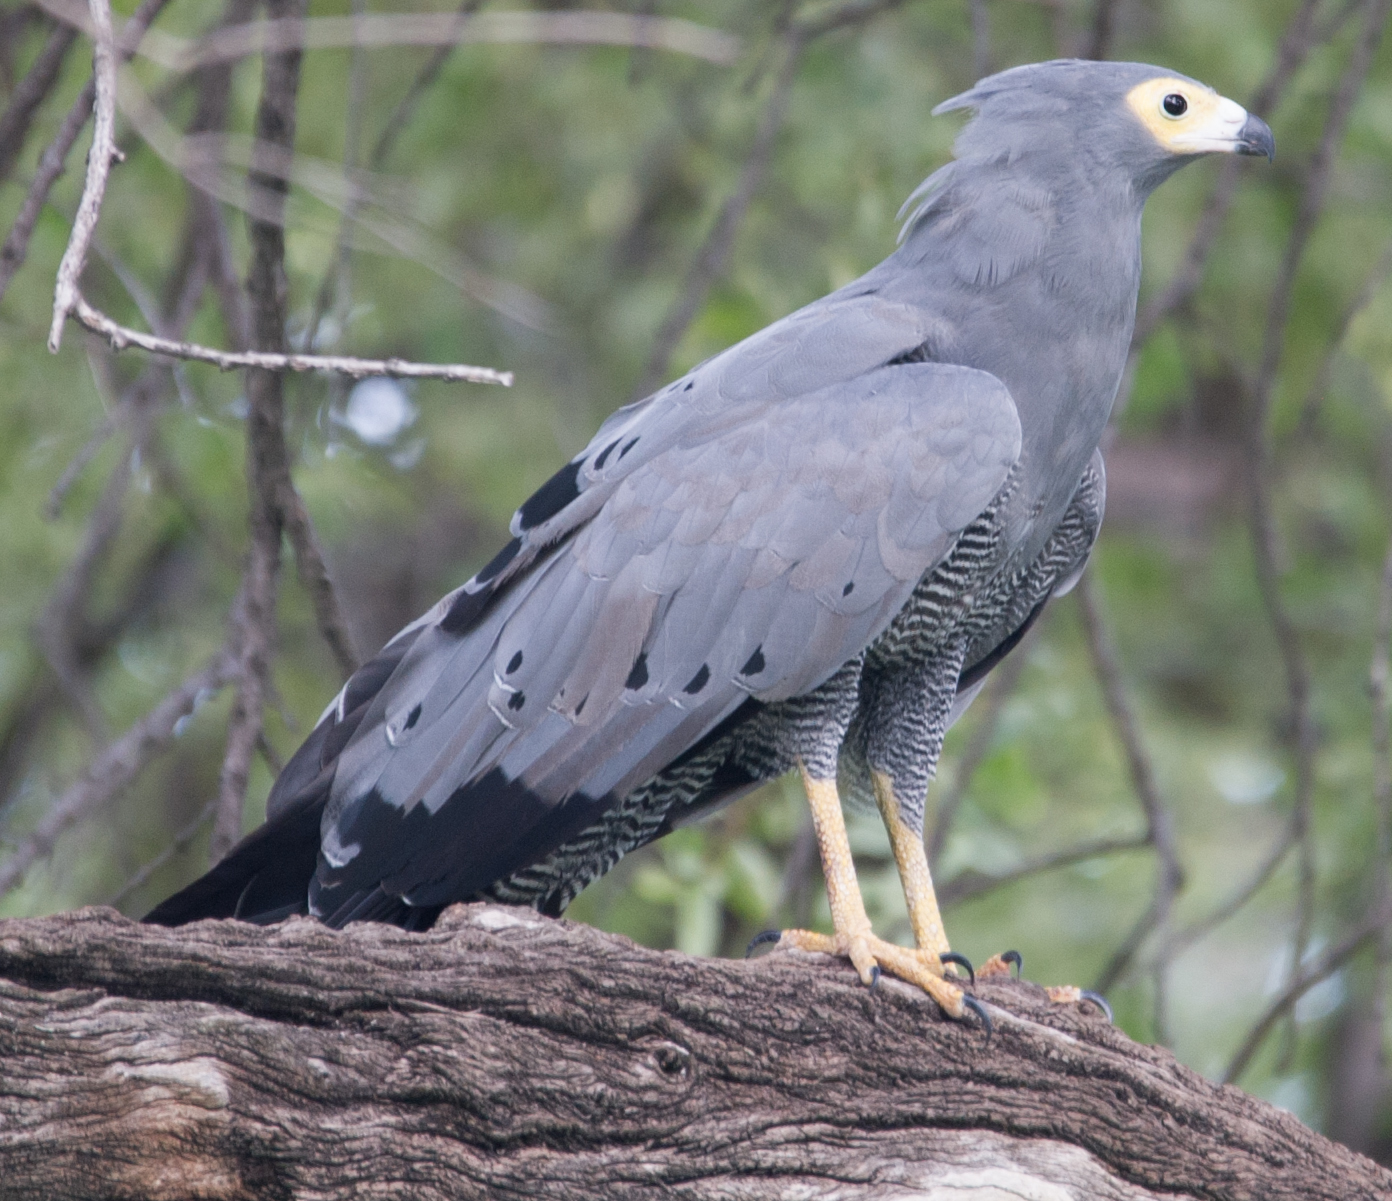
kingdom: Animalia
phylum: Chordata
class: Aves
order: Accipitriformes
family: Accipitridae
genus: Polyboroides
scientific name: Polyboroides typus
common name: African harrier-hawk
